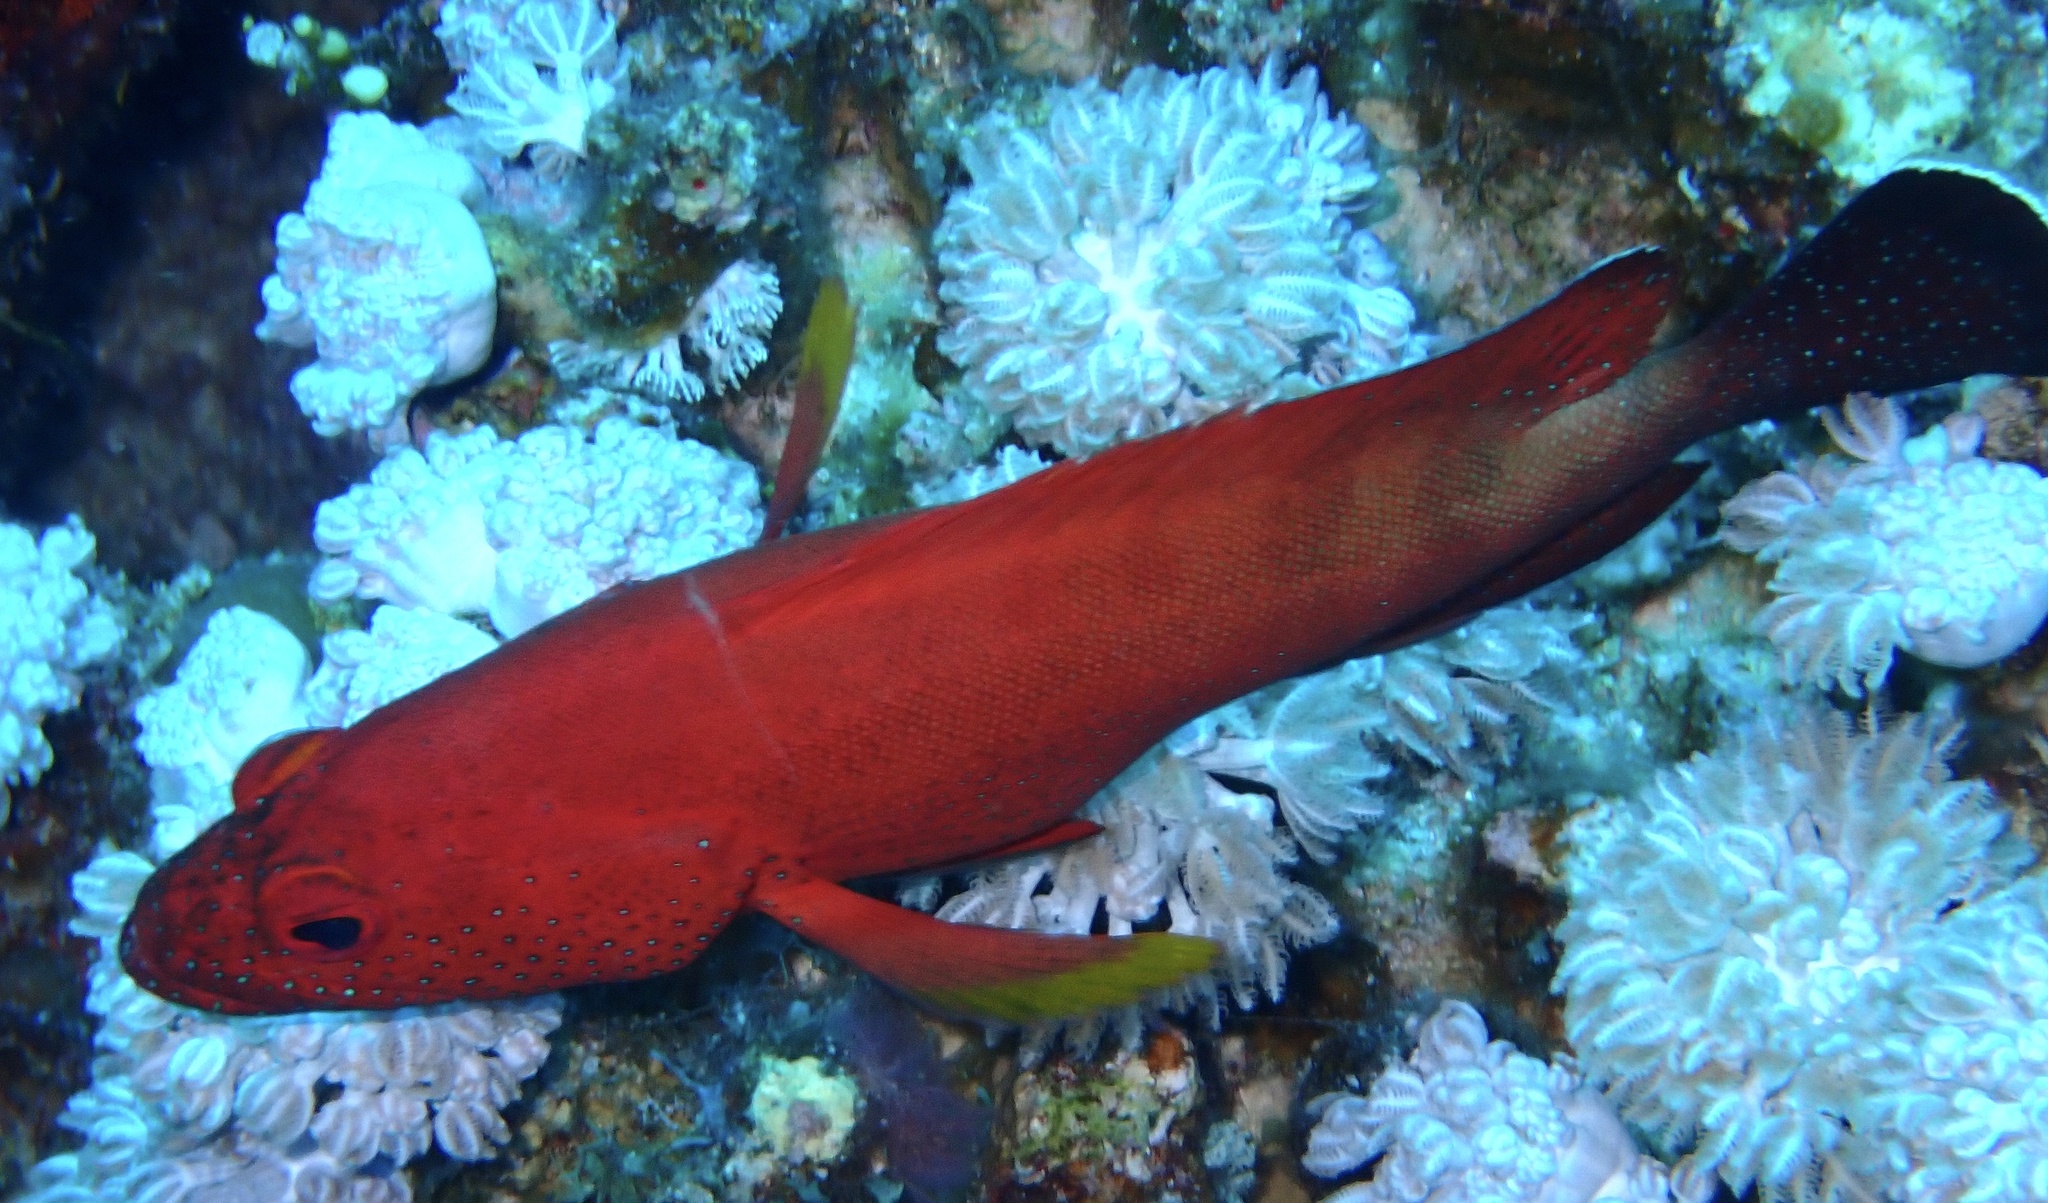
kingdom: Animalia
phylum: Chordata
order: Perciformes
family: Serranidae
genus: Cephalopholis
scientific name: Cephalopholis hemistiktos
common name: Halfspotted hind
